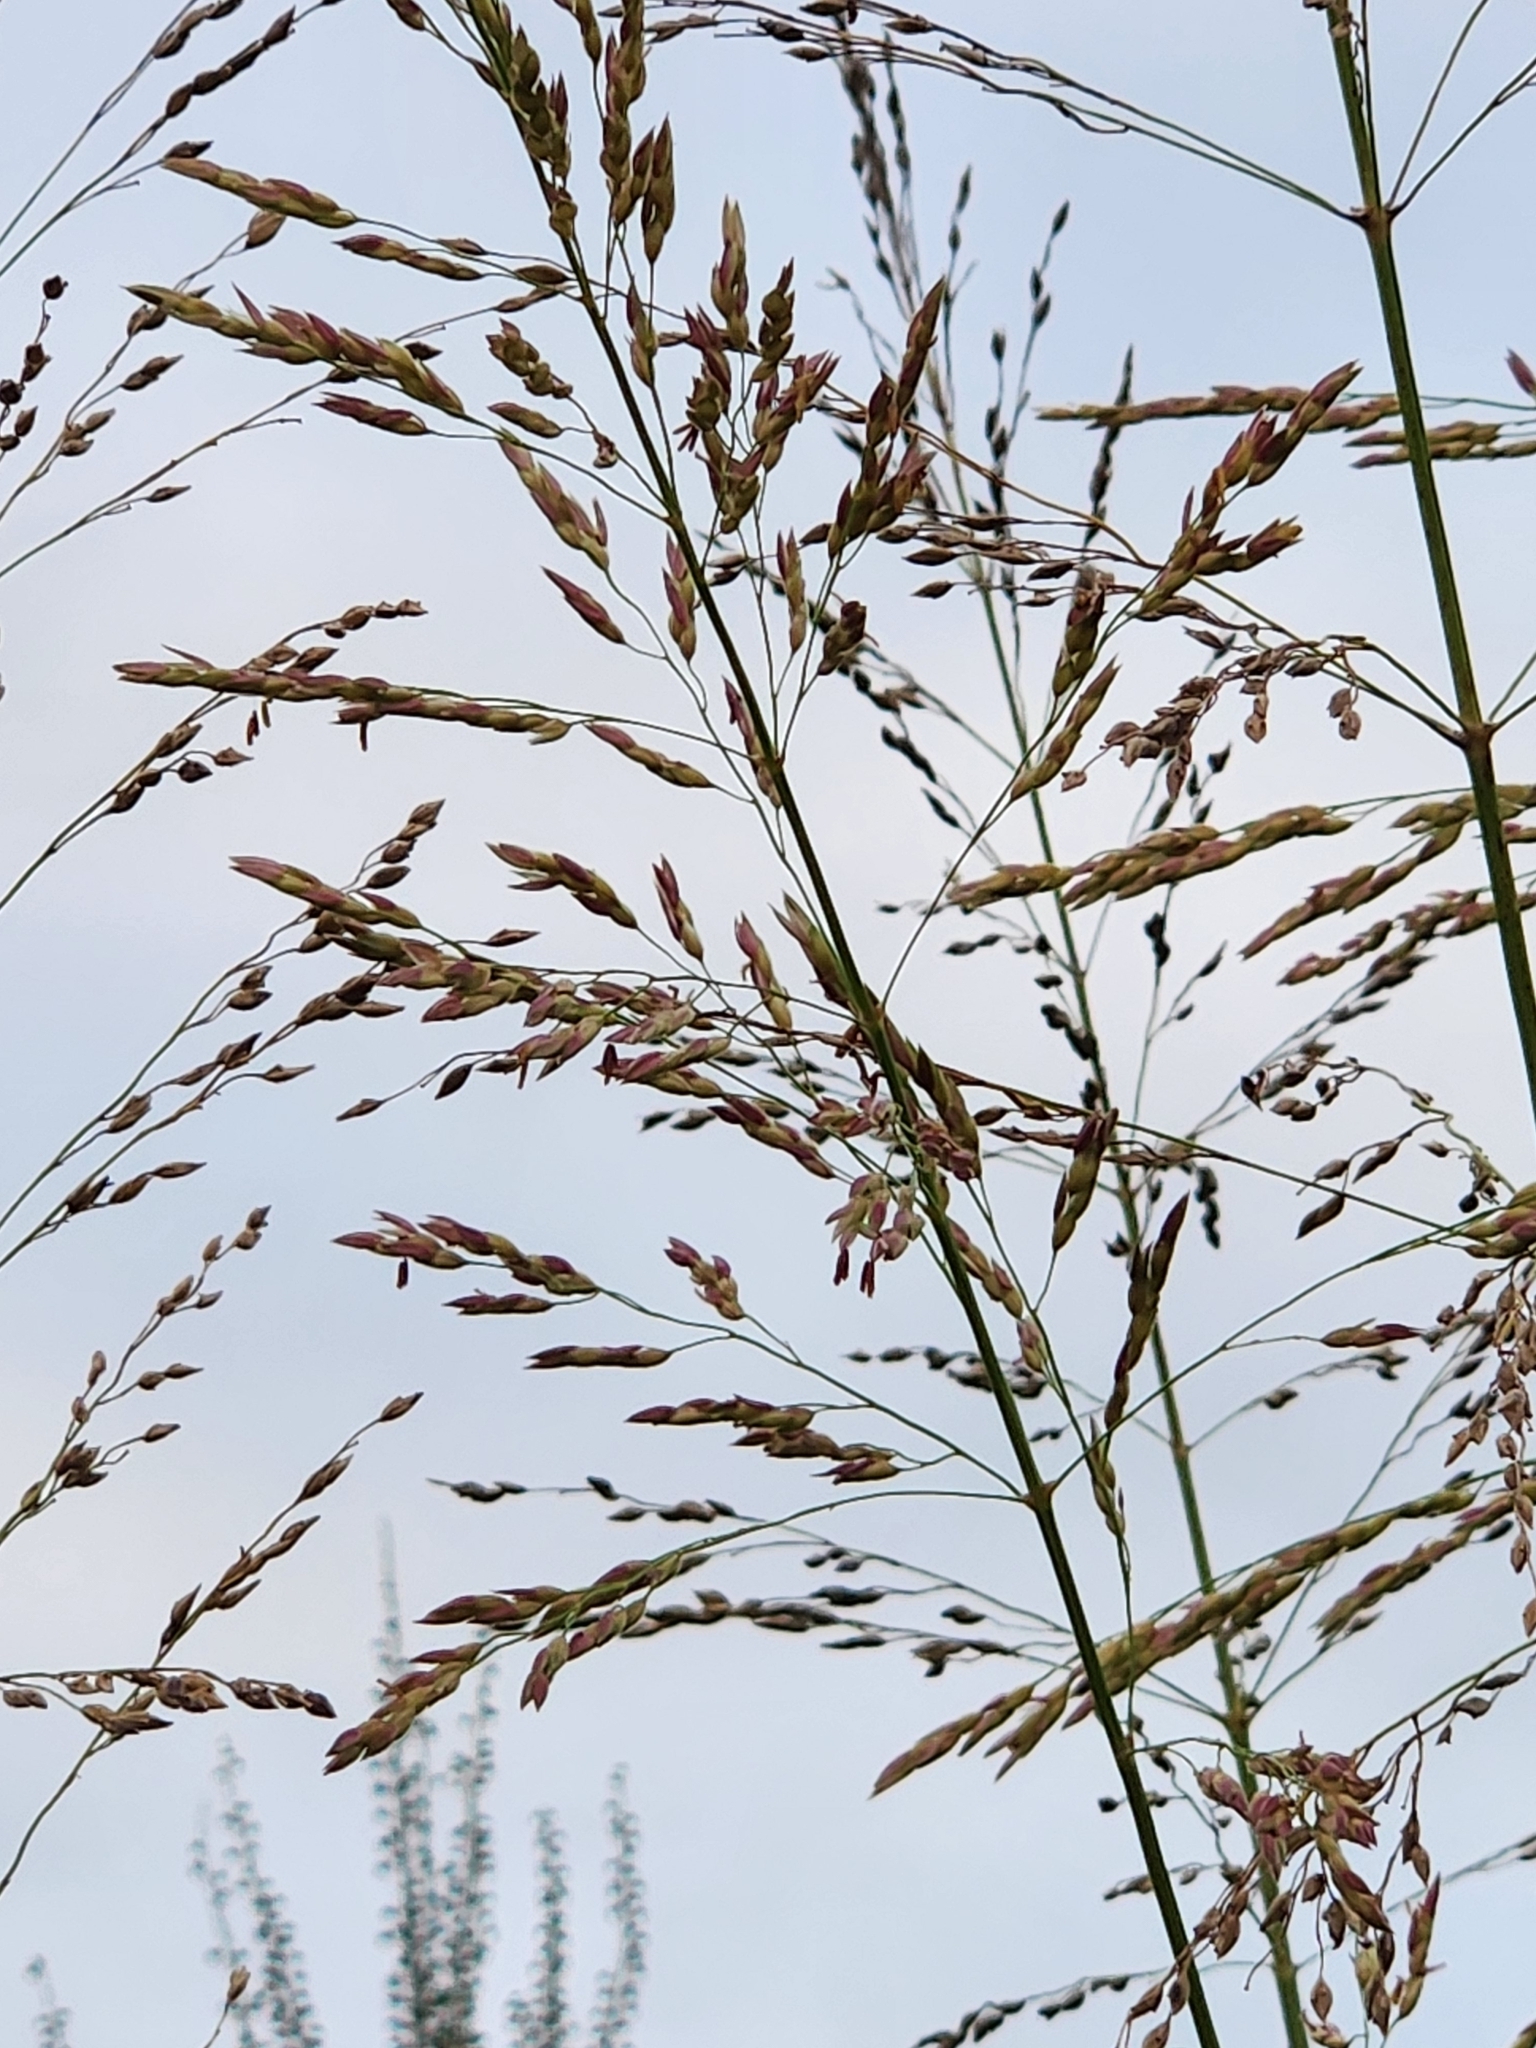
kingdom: Plantae
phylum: Tracheophyta
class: Liliopsida
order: Poales
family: Poaceae
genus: Sorghum
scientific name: Sorghum halepense
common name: Johnson-grass
